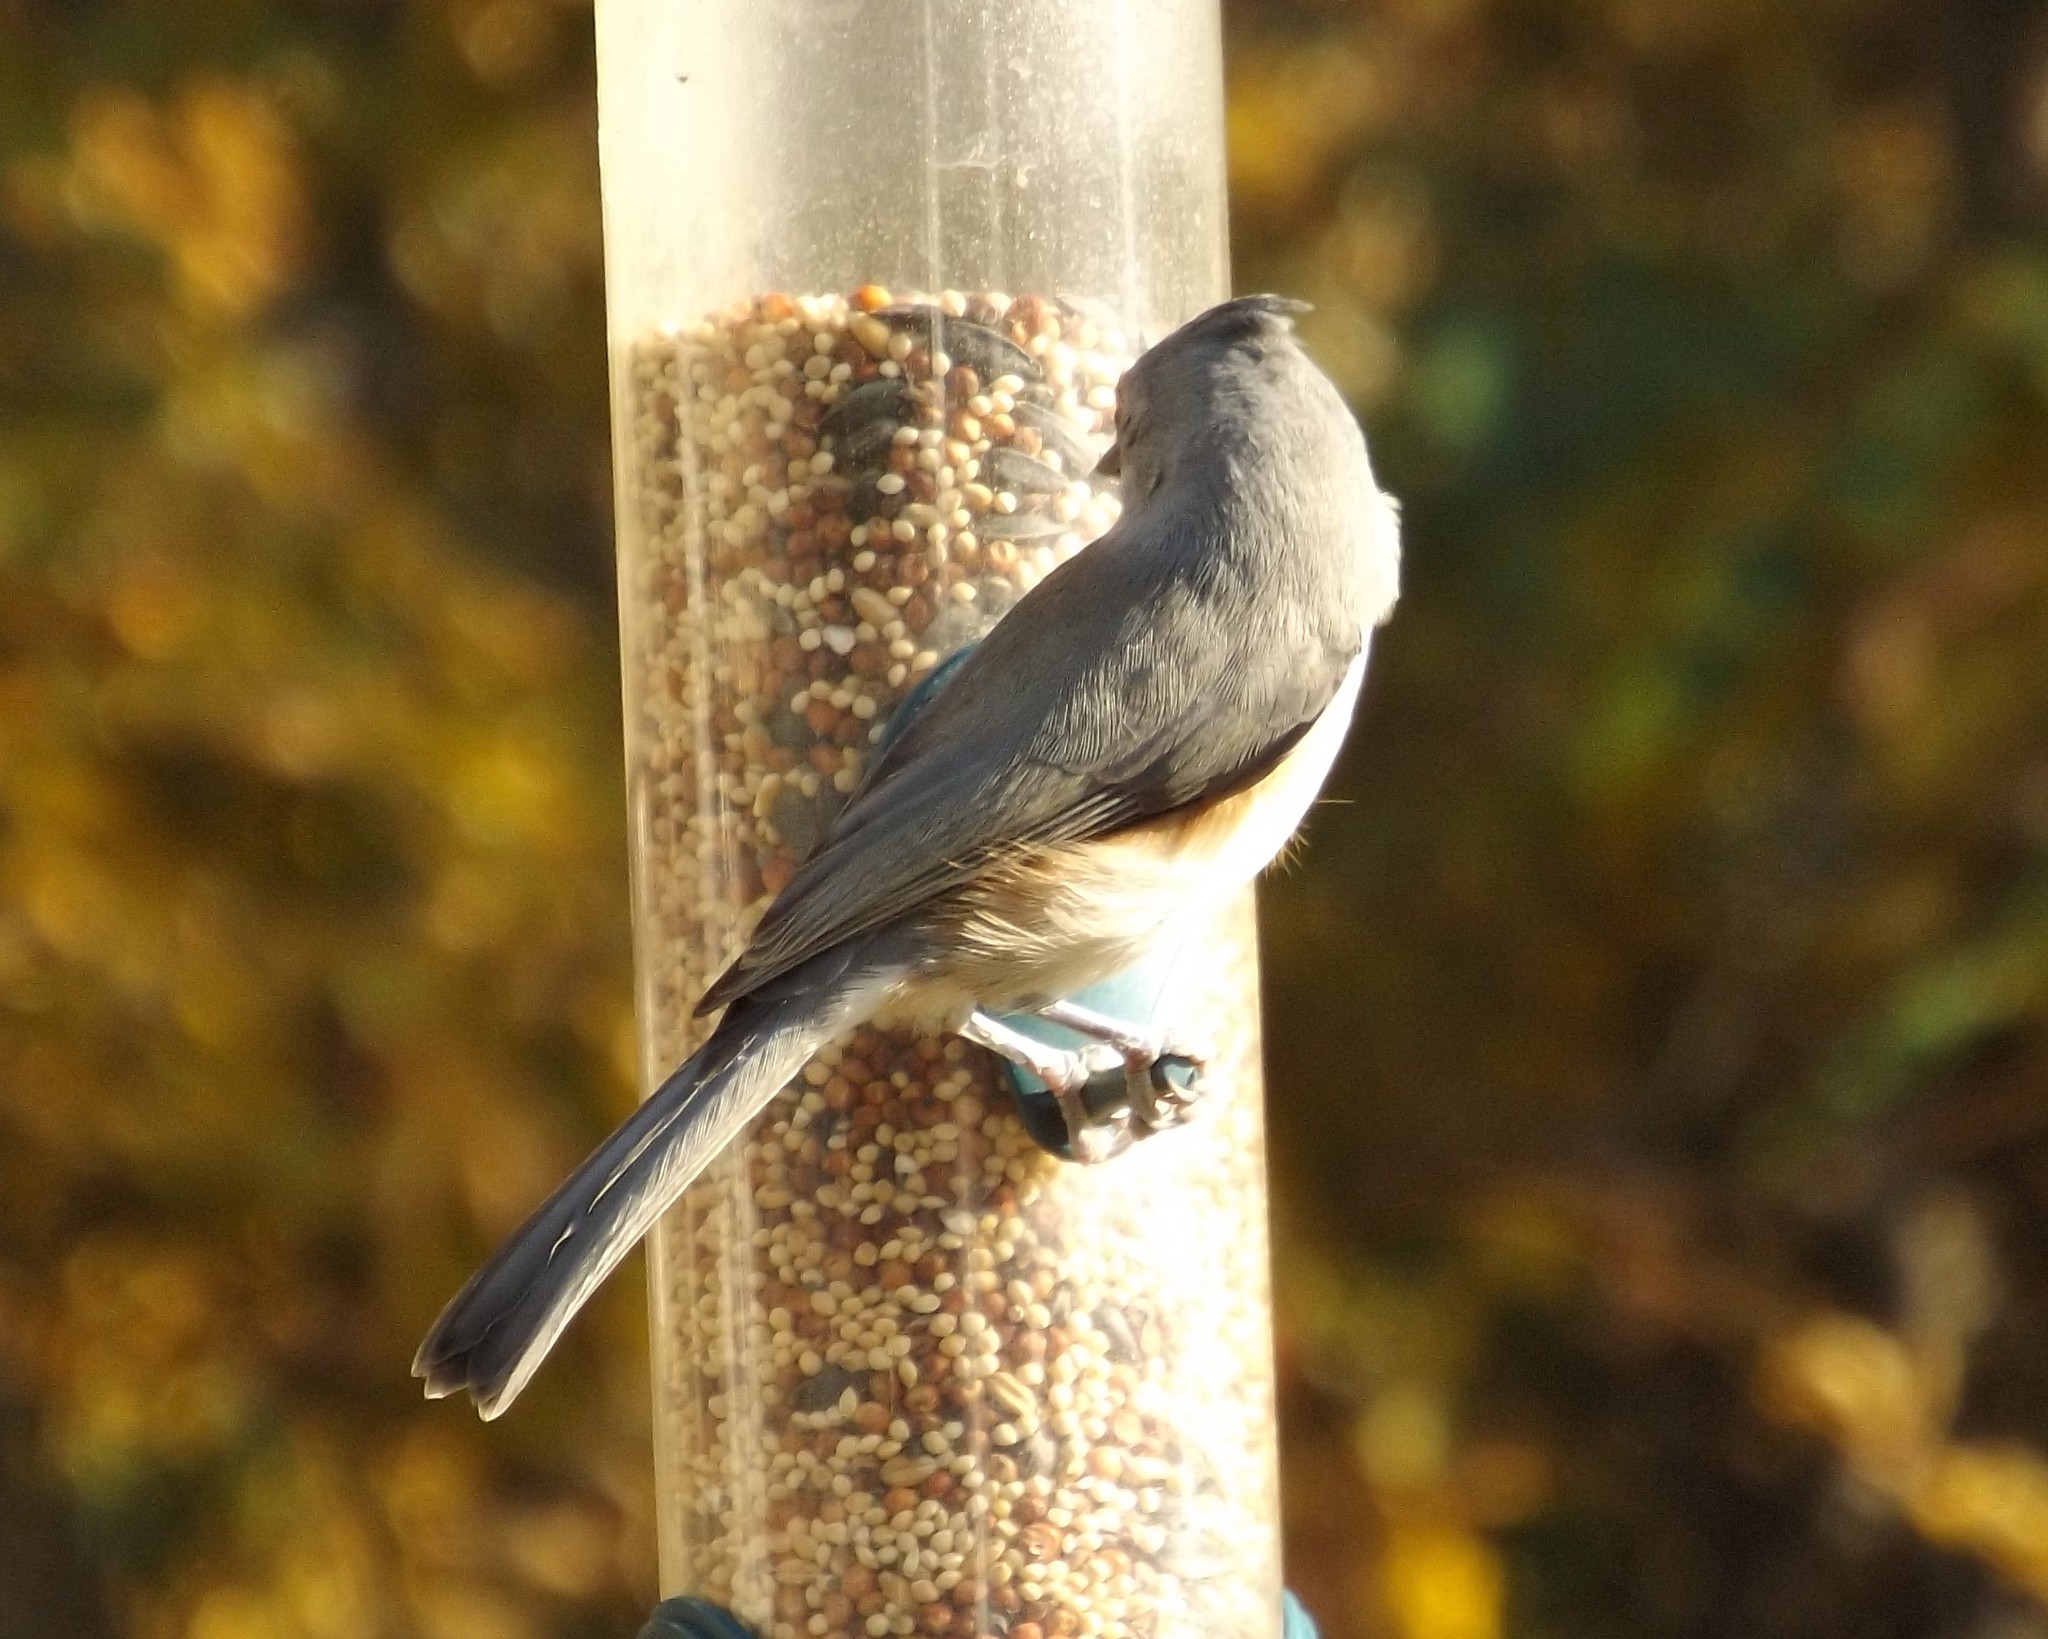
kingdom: Animalia
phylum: Chordata
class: Aves
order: Passeriformes
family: Paridae
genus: Baeolophus
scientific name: Baeolophus bicolor
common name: Tufted titmouse
